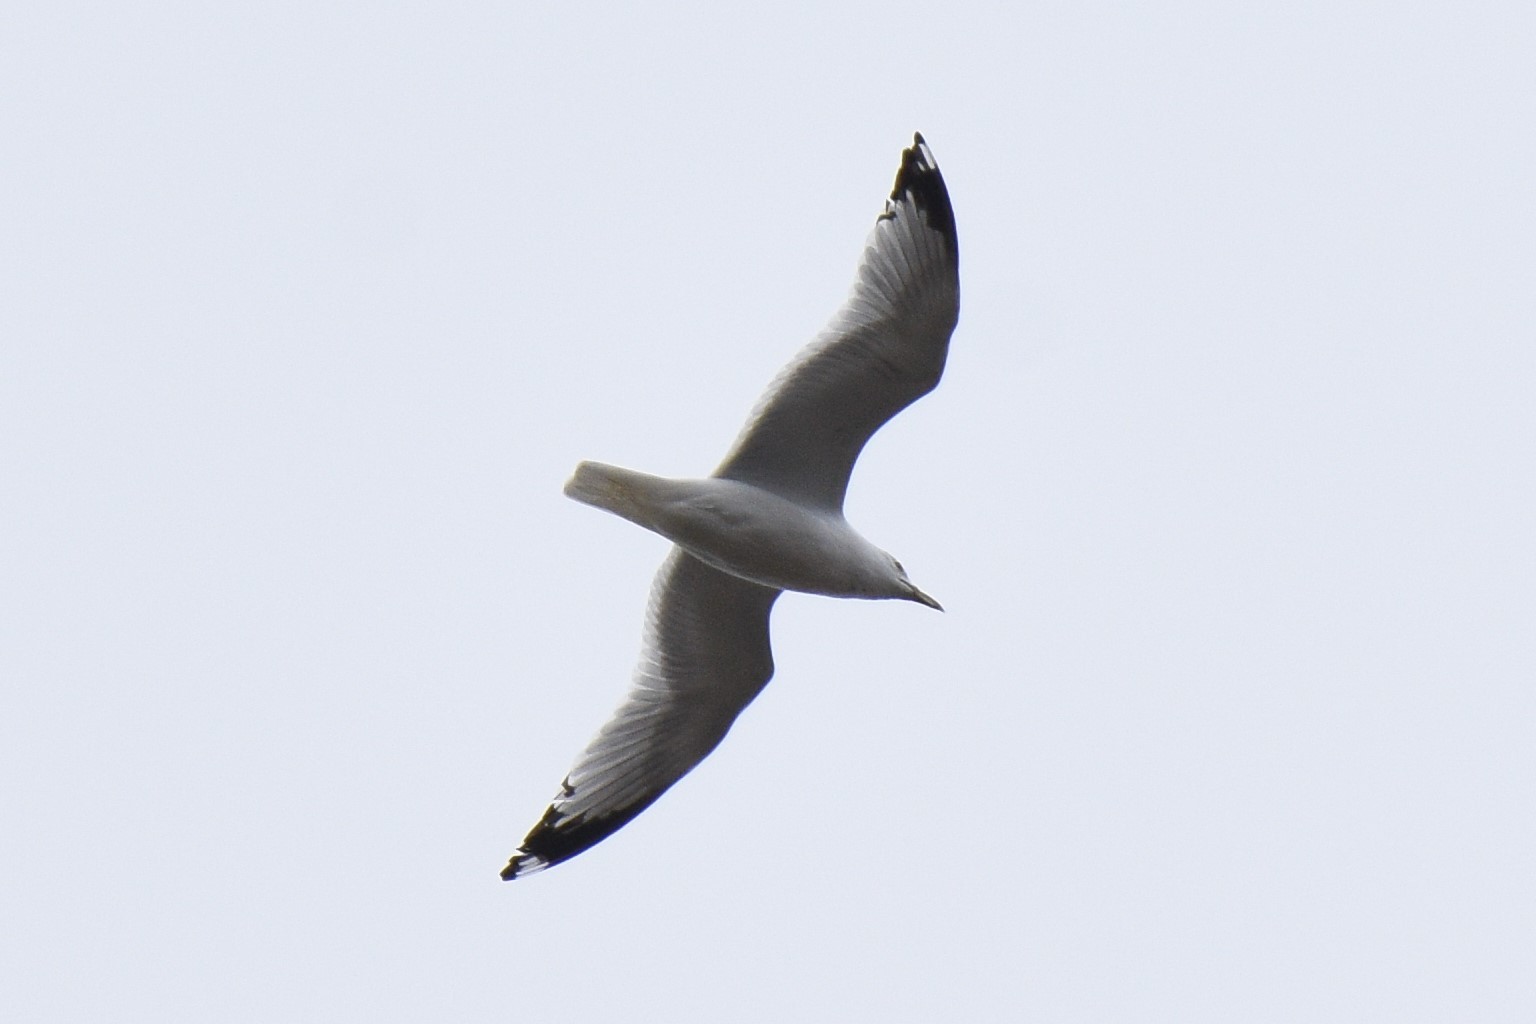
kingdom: Animalia
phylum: Chordata
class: Aves
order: Charadriiformes
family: Laridae
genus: Larus
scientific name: Larus delawarensis
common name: Ring-billed gull
